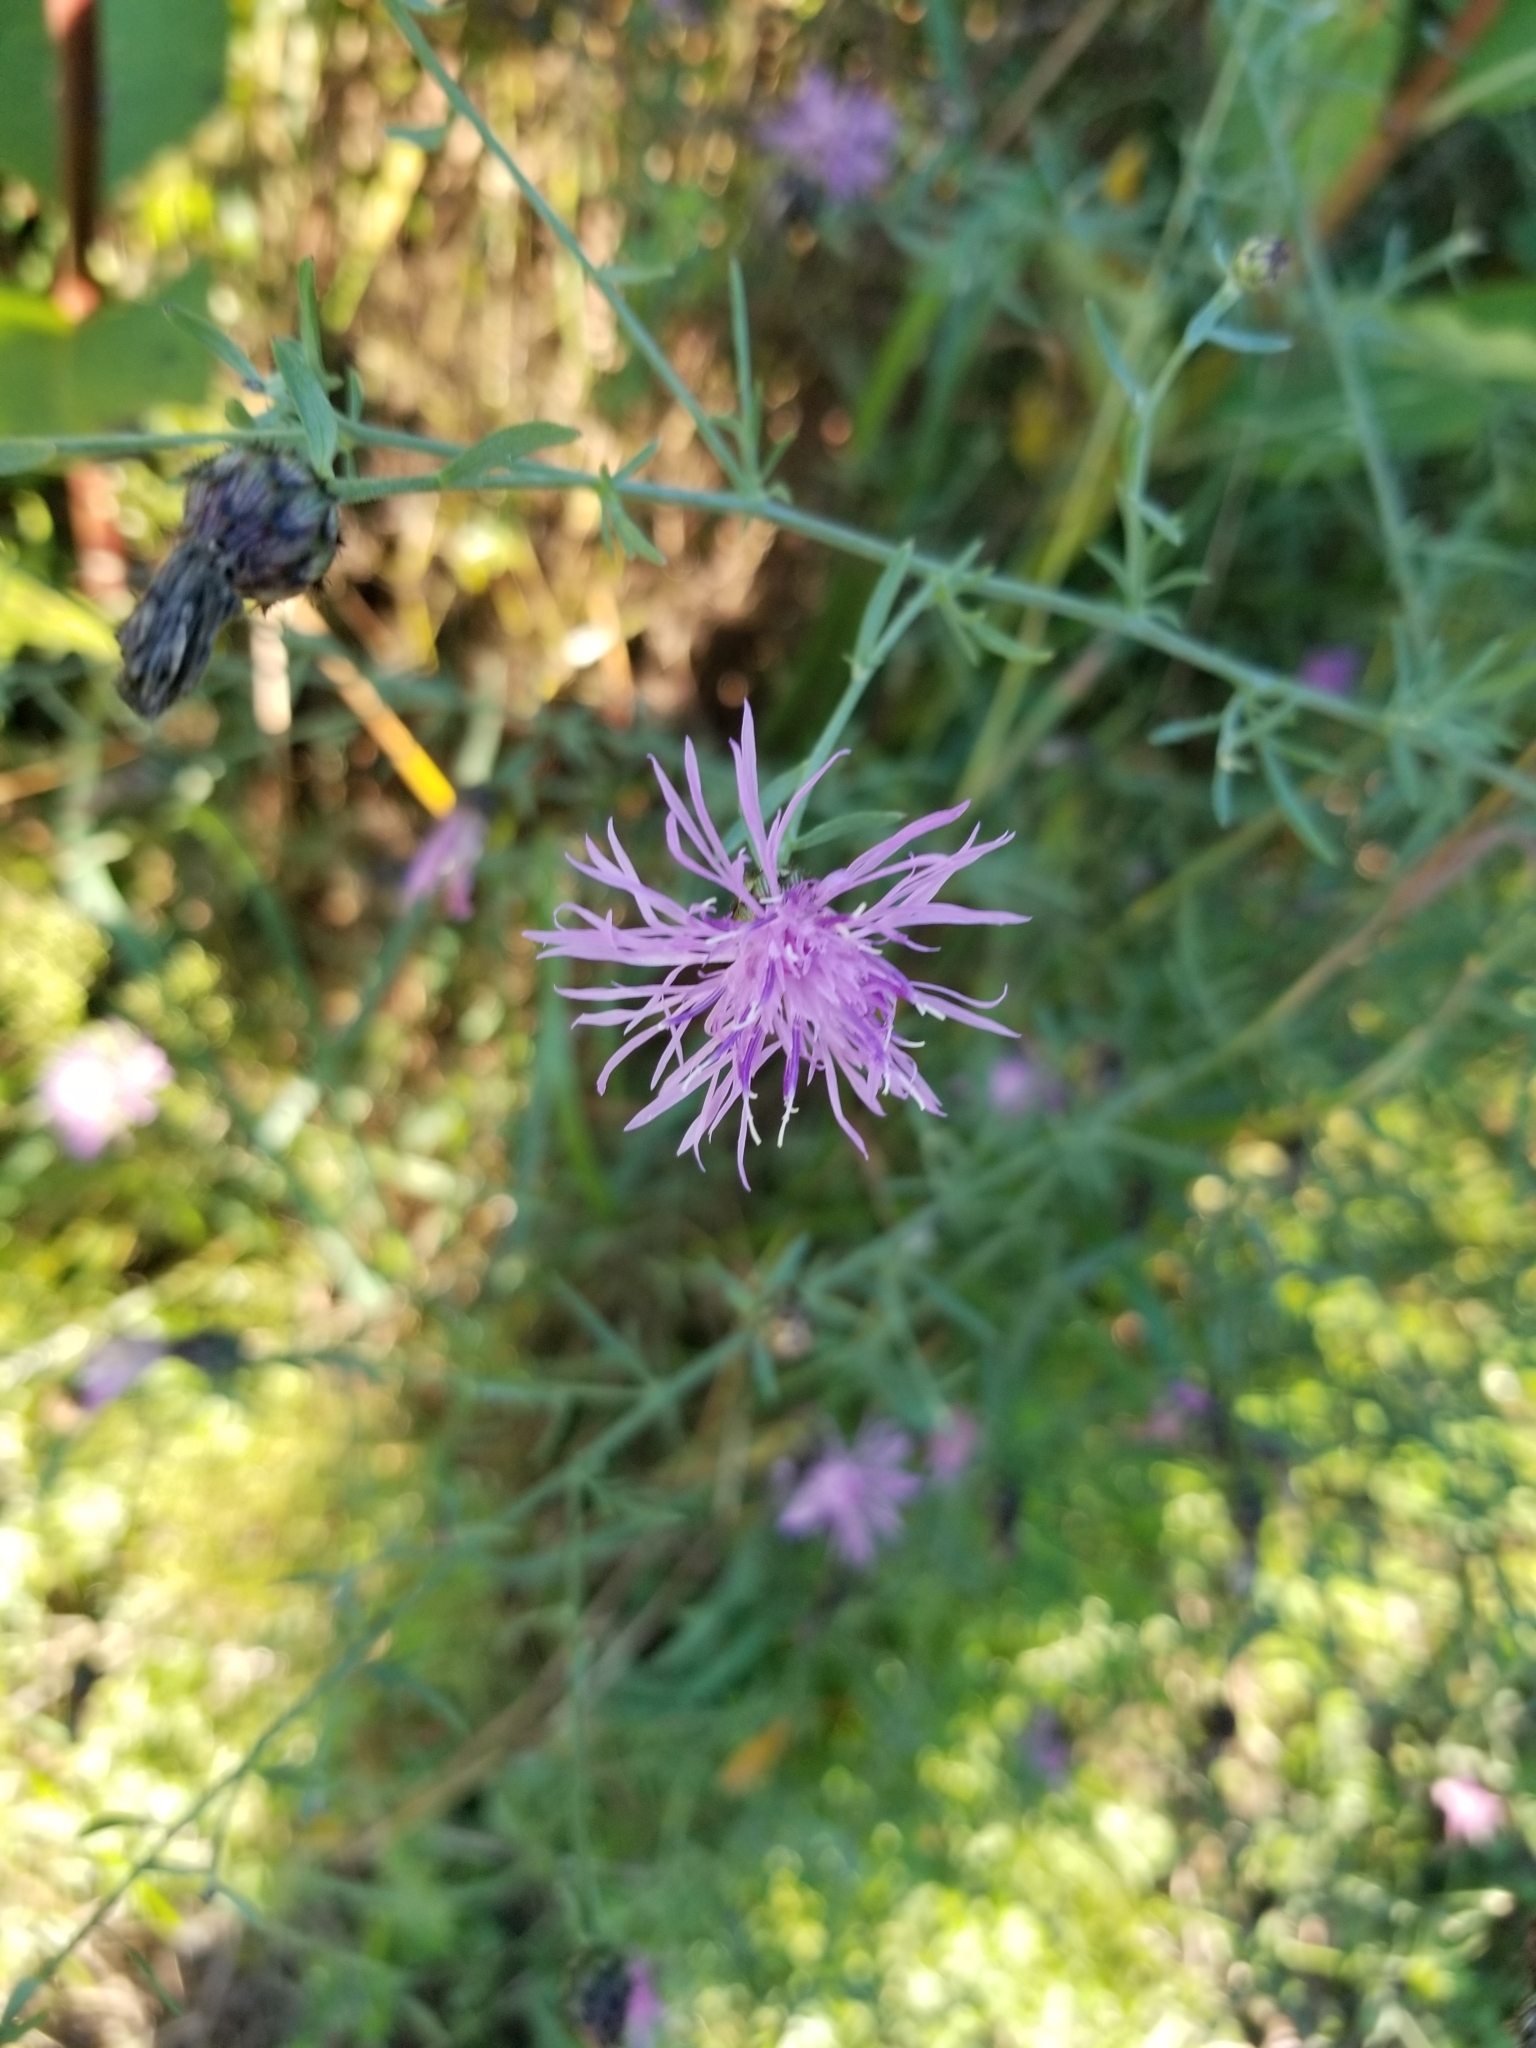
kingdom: Plantae
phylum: Tracheophyta
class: Magnoliopsida
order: Asterales
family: Asteraceae
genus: Centaurea
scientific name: Centaurea stoebe
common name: Spotted knapweed
